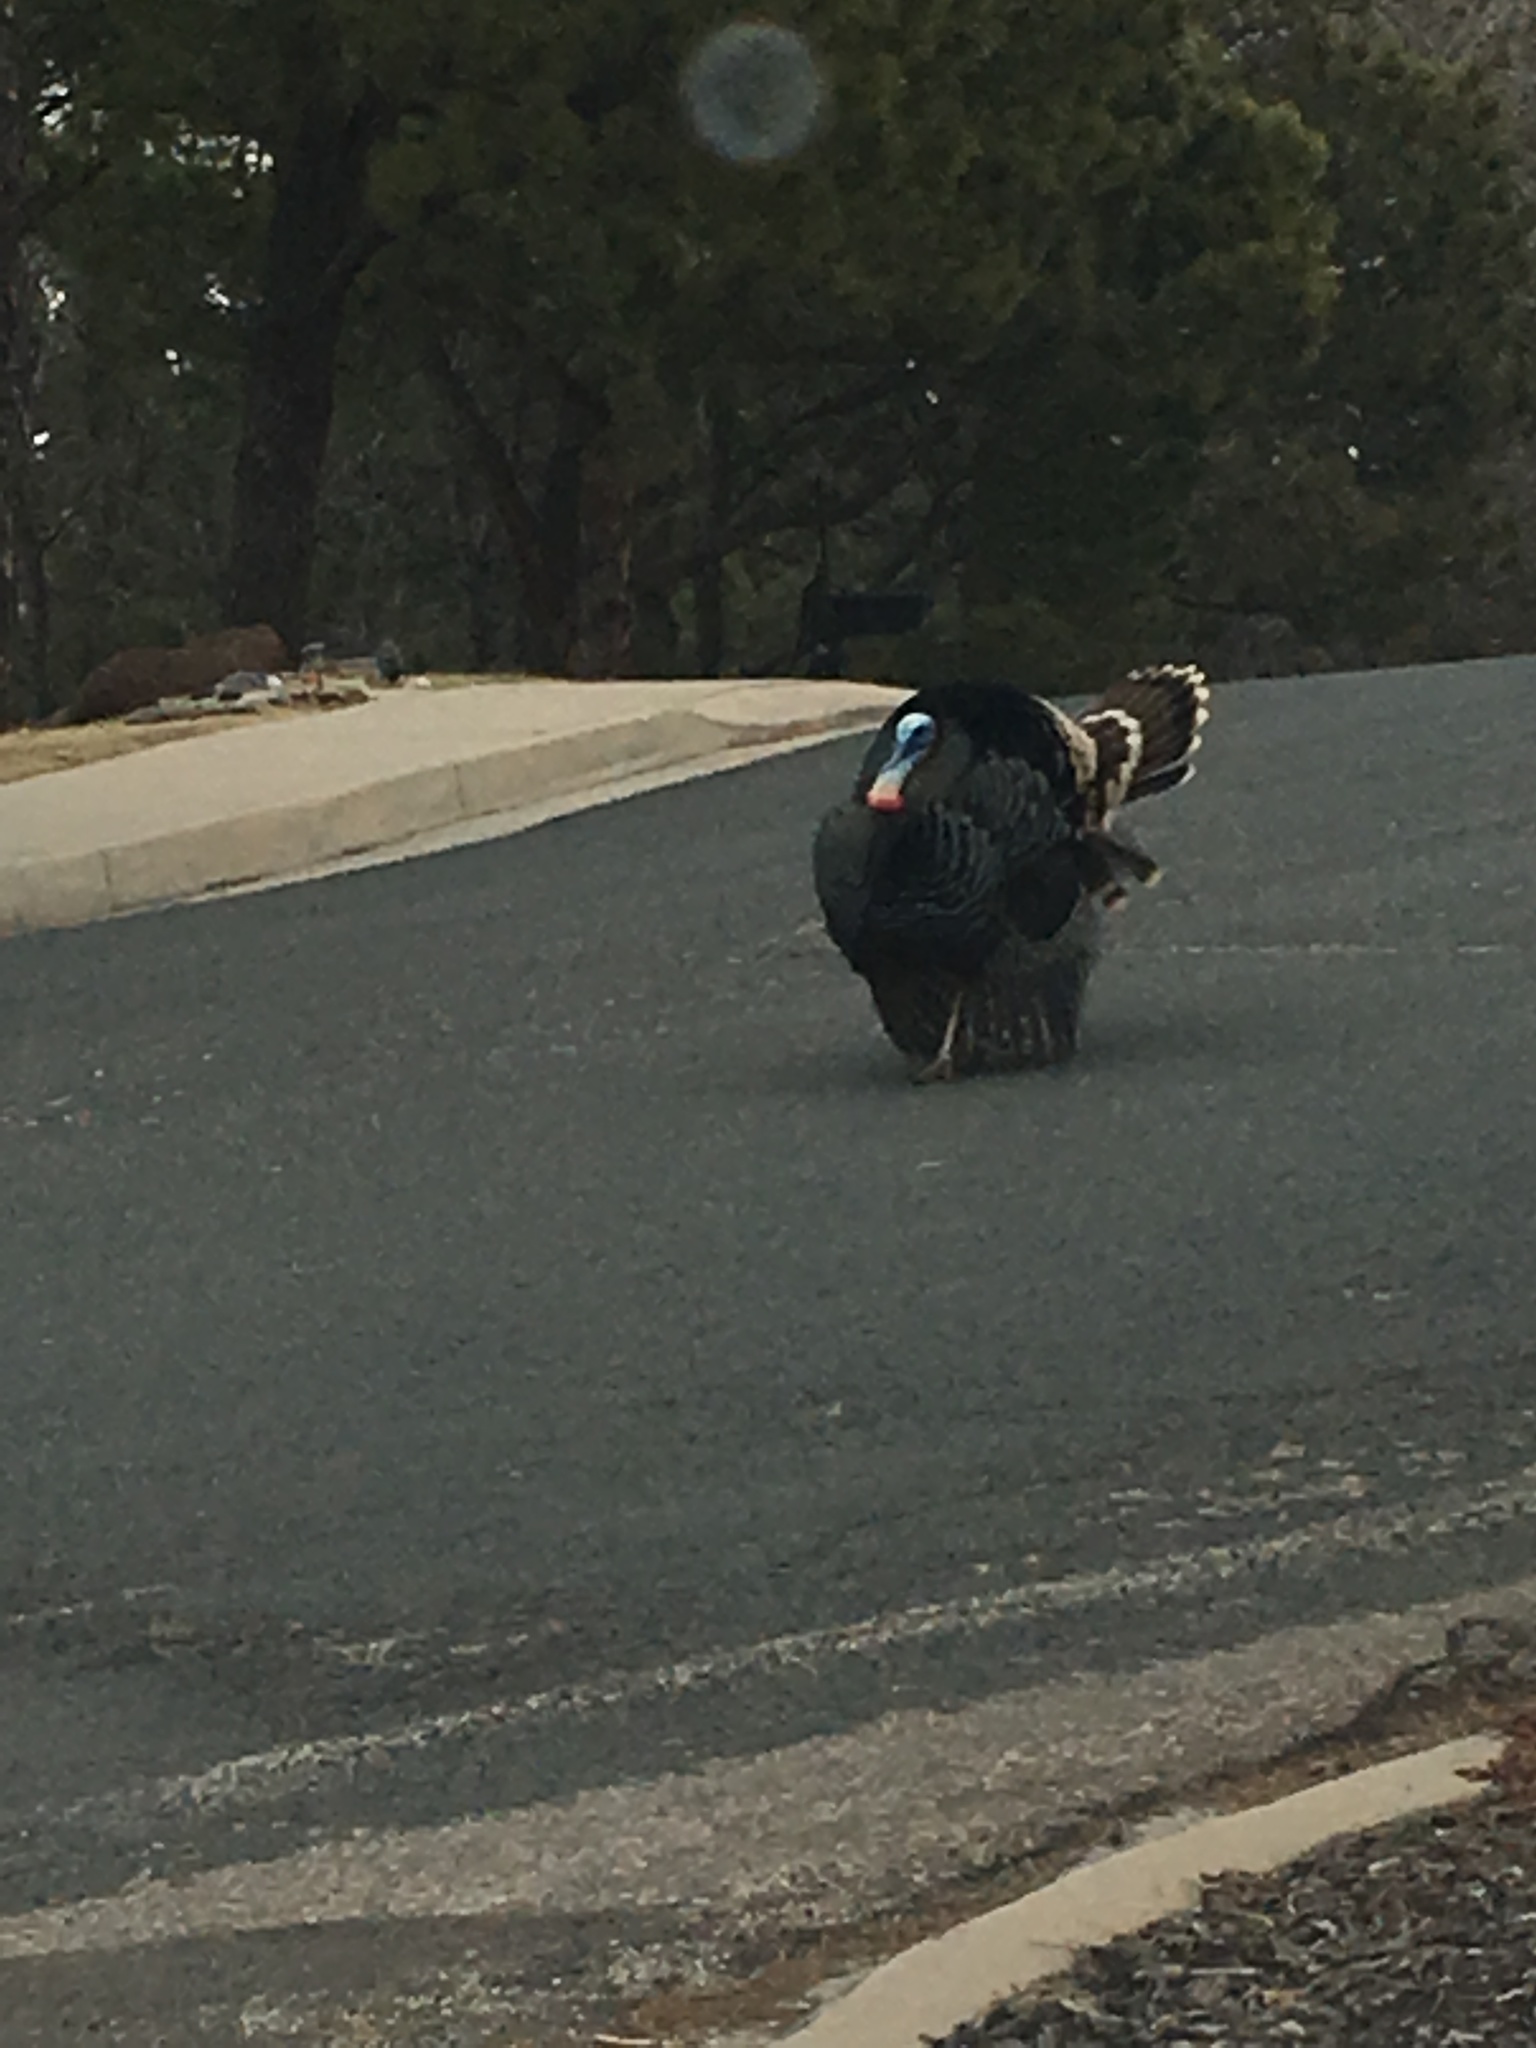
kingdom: Animalia
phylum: Chordata
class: Aves
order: Galliformes
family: Phasianidae
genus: Meleagris
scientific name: Meleagris gallopavo
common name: Wild turkey
